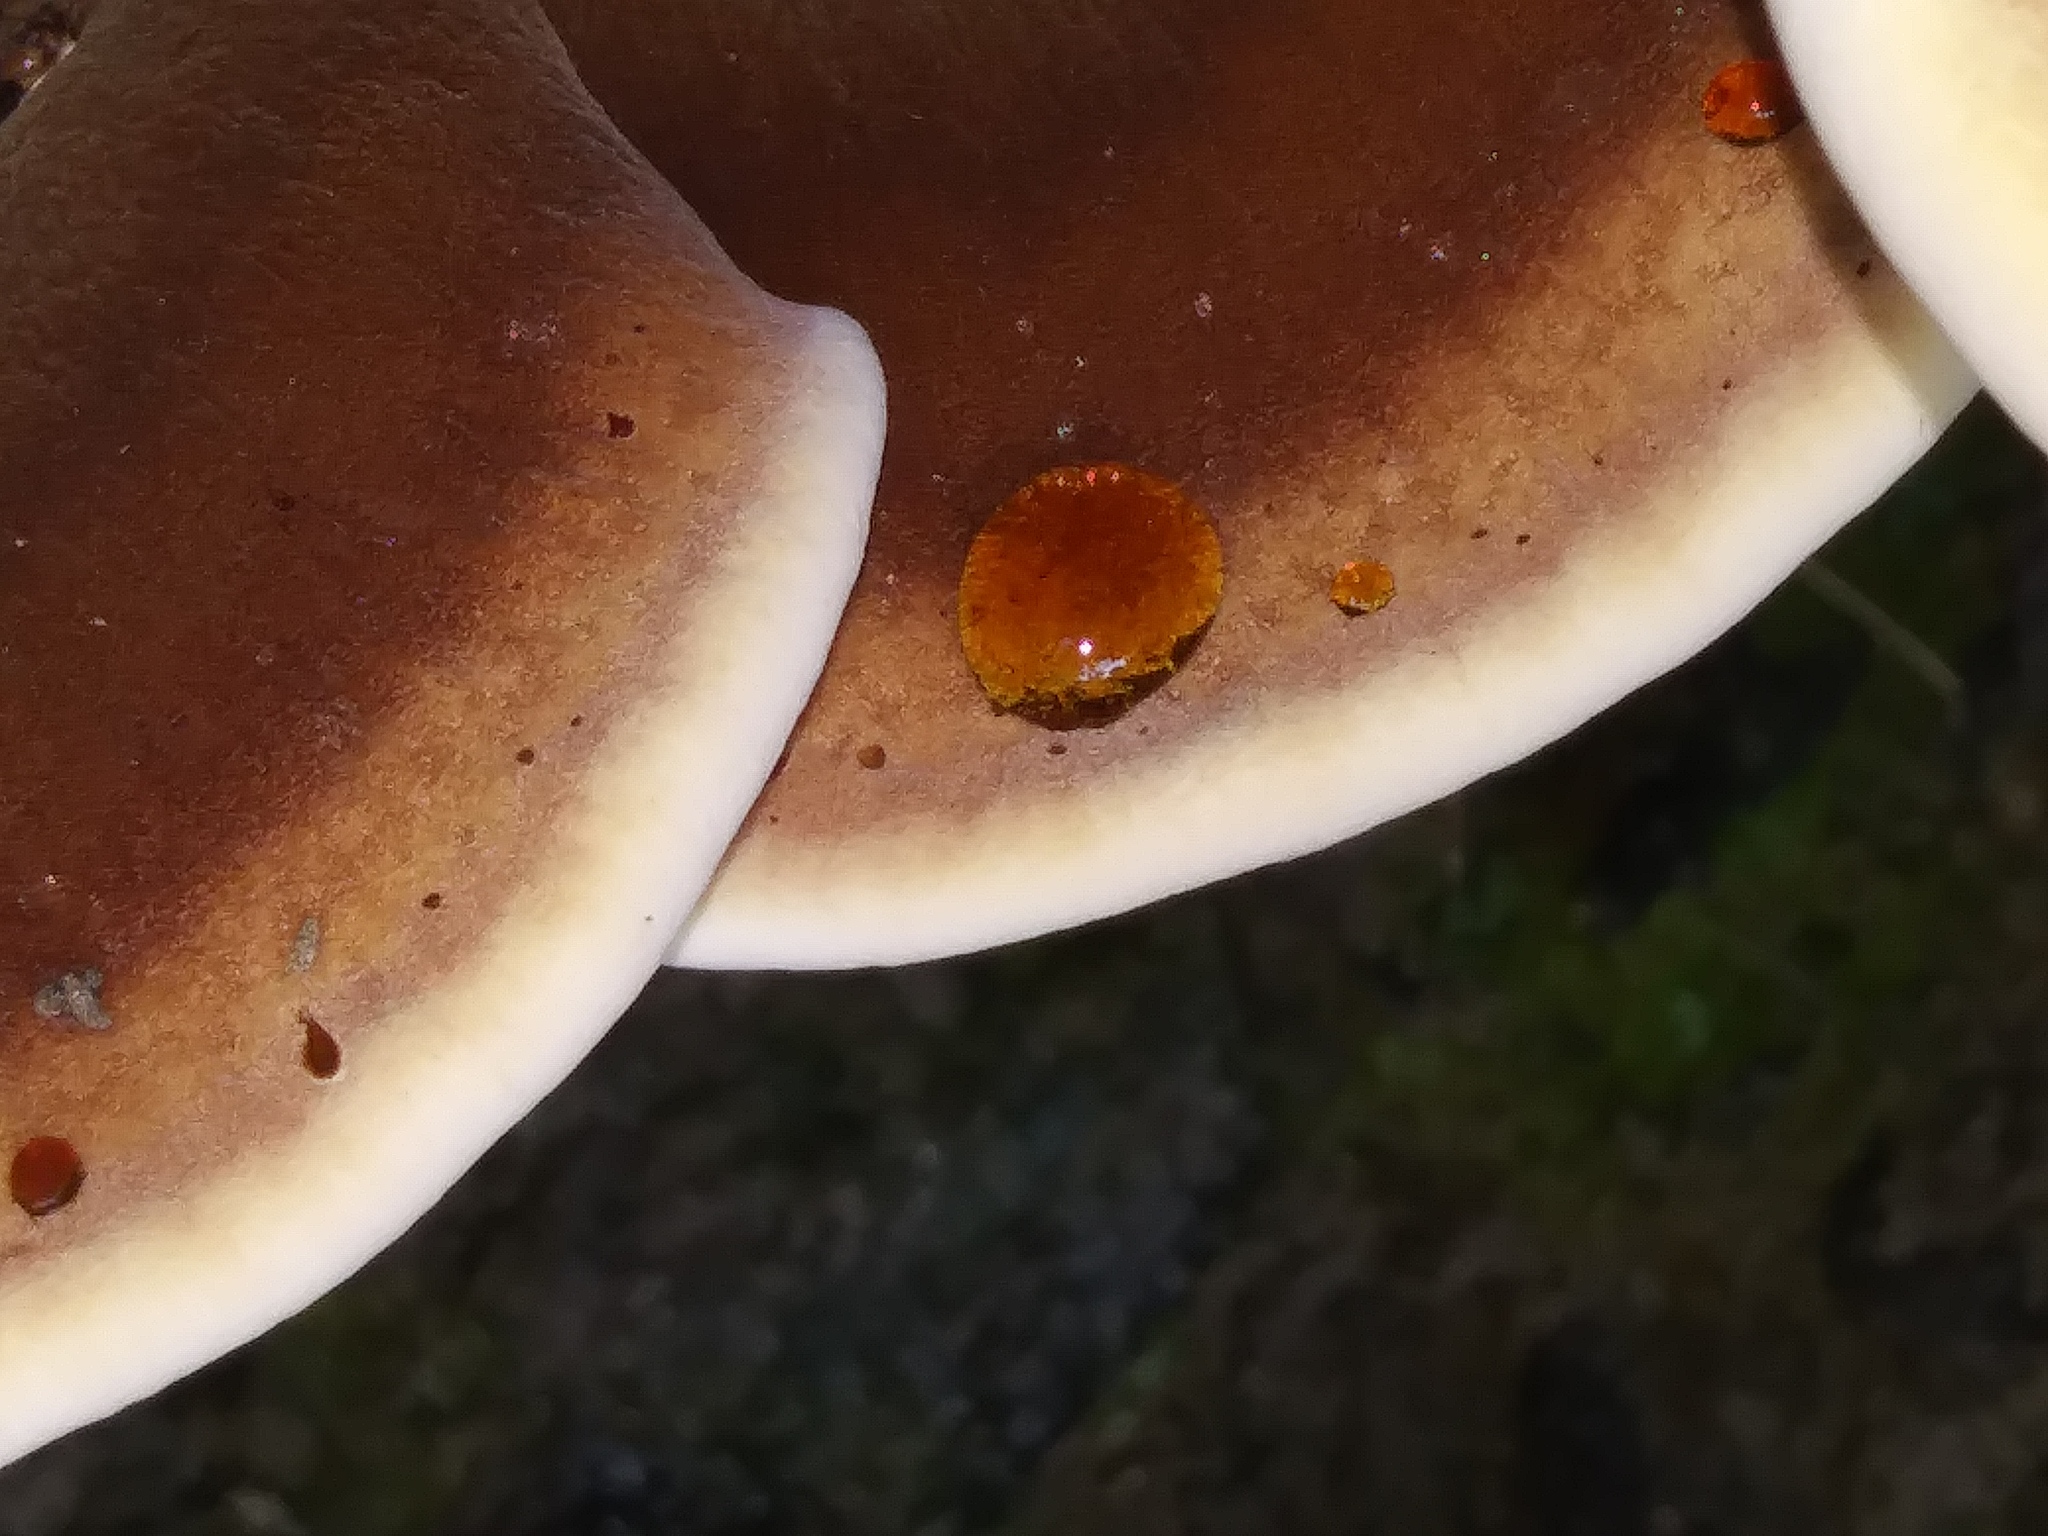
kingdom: Fungi
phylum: Basidiomycota
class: Agaricomycetes
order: Polyporales
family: Ischnodermataceae
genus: Ischnoderma
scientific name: Ischnoderma resinosum
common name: Resinous polypore
